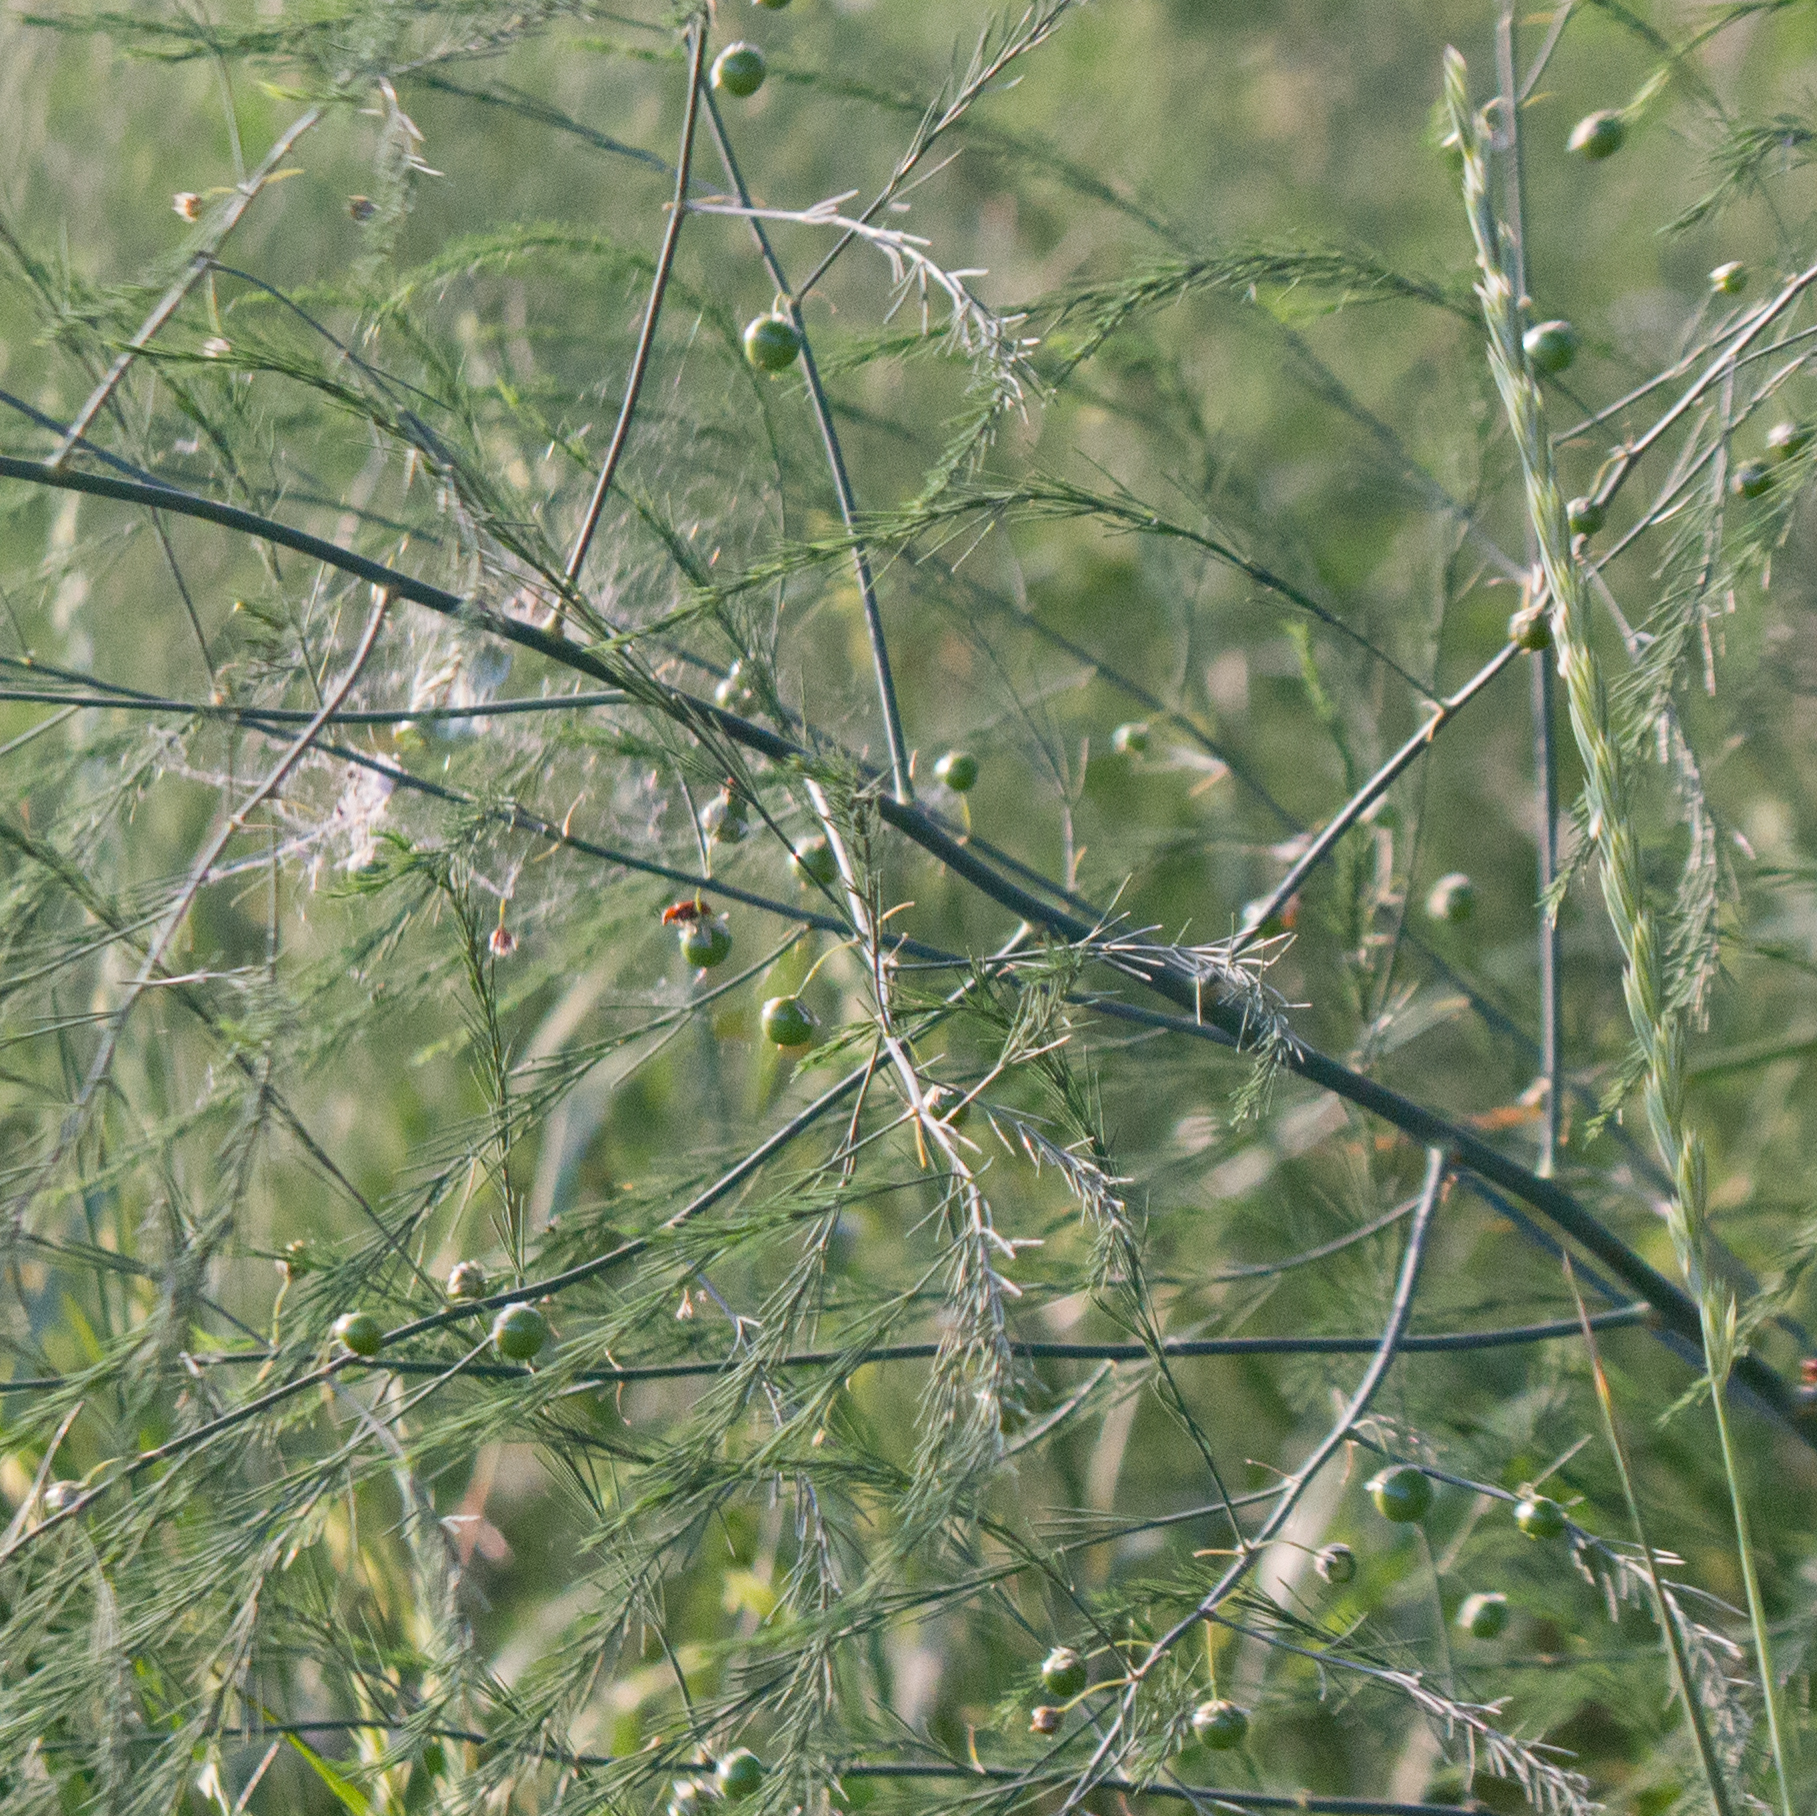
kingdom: Plantae
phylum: Tracheophyta
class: Liliopsida
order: Asparagales
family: Asparagaceae
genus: Asparagus
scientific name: Asparagus officinalis
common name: Garden asparagus
